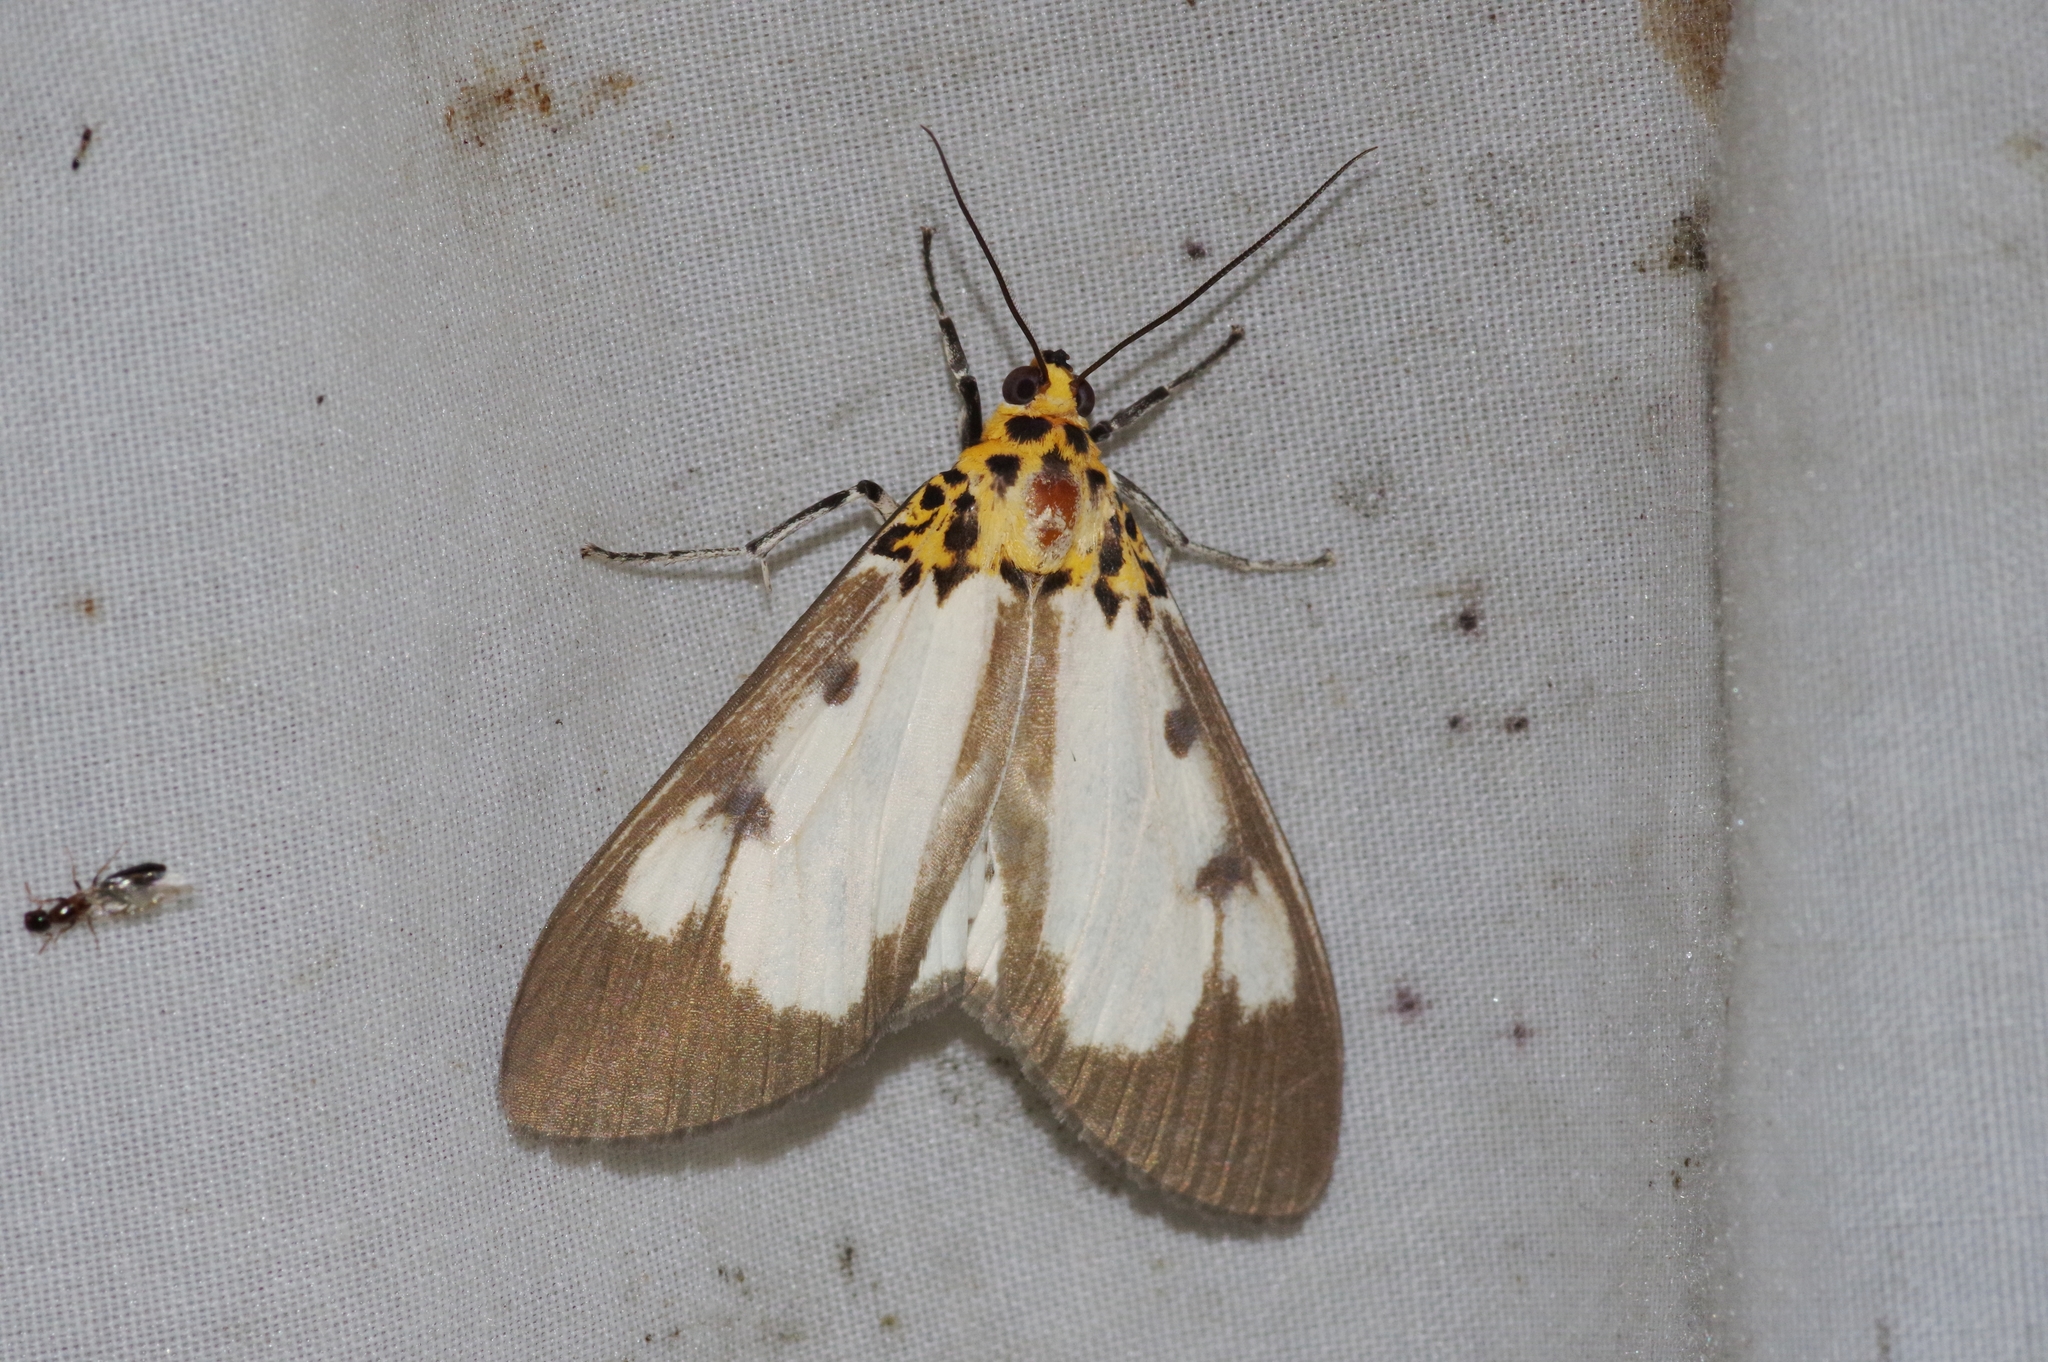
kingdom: Animalia
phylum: Arthropoda
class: Insecta
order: Lepidoptera
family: Erebidae
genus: Asota
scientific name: Asota plana
